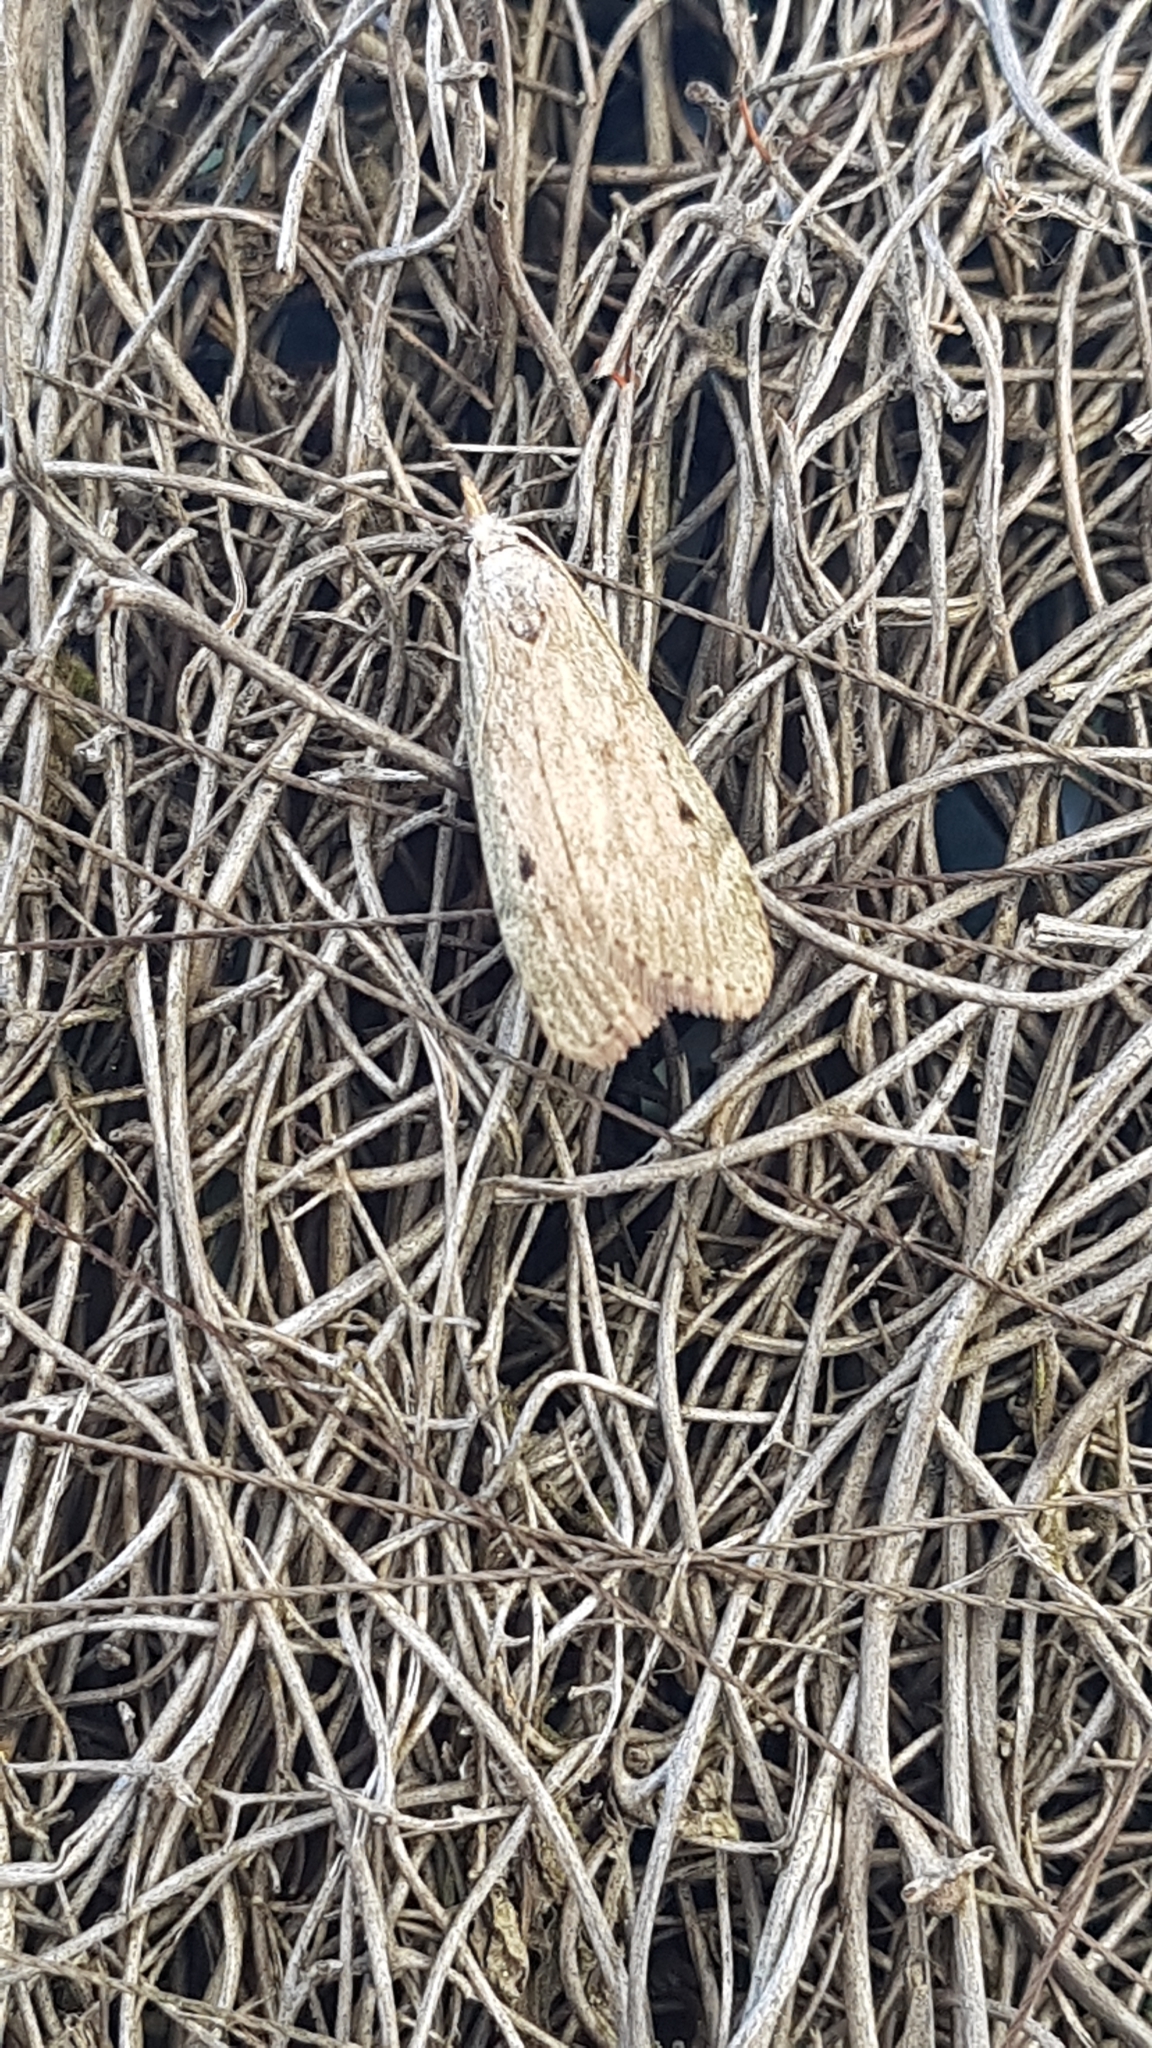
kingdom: Animalia
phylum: Arthropoda
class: Insecta
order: Lepidoptera
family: Pyralidae
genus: Aphomia
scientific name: Aphomia sociella
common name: Bee moth
